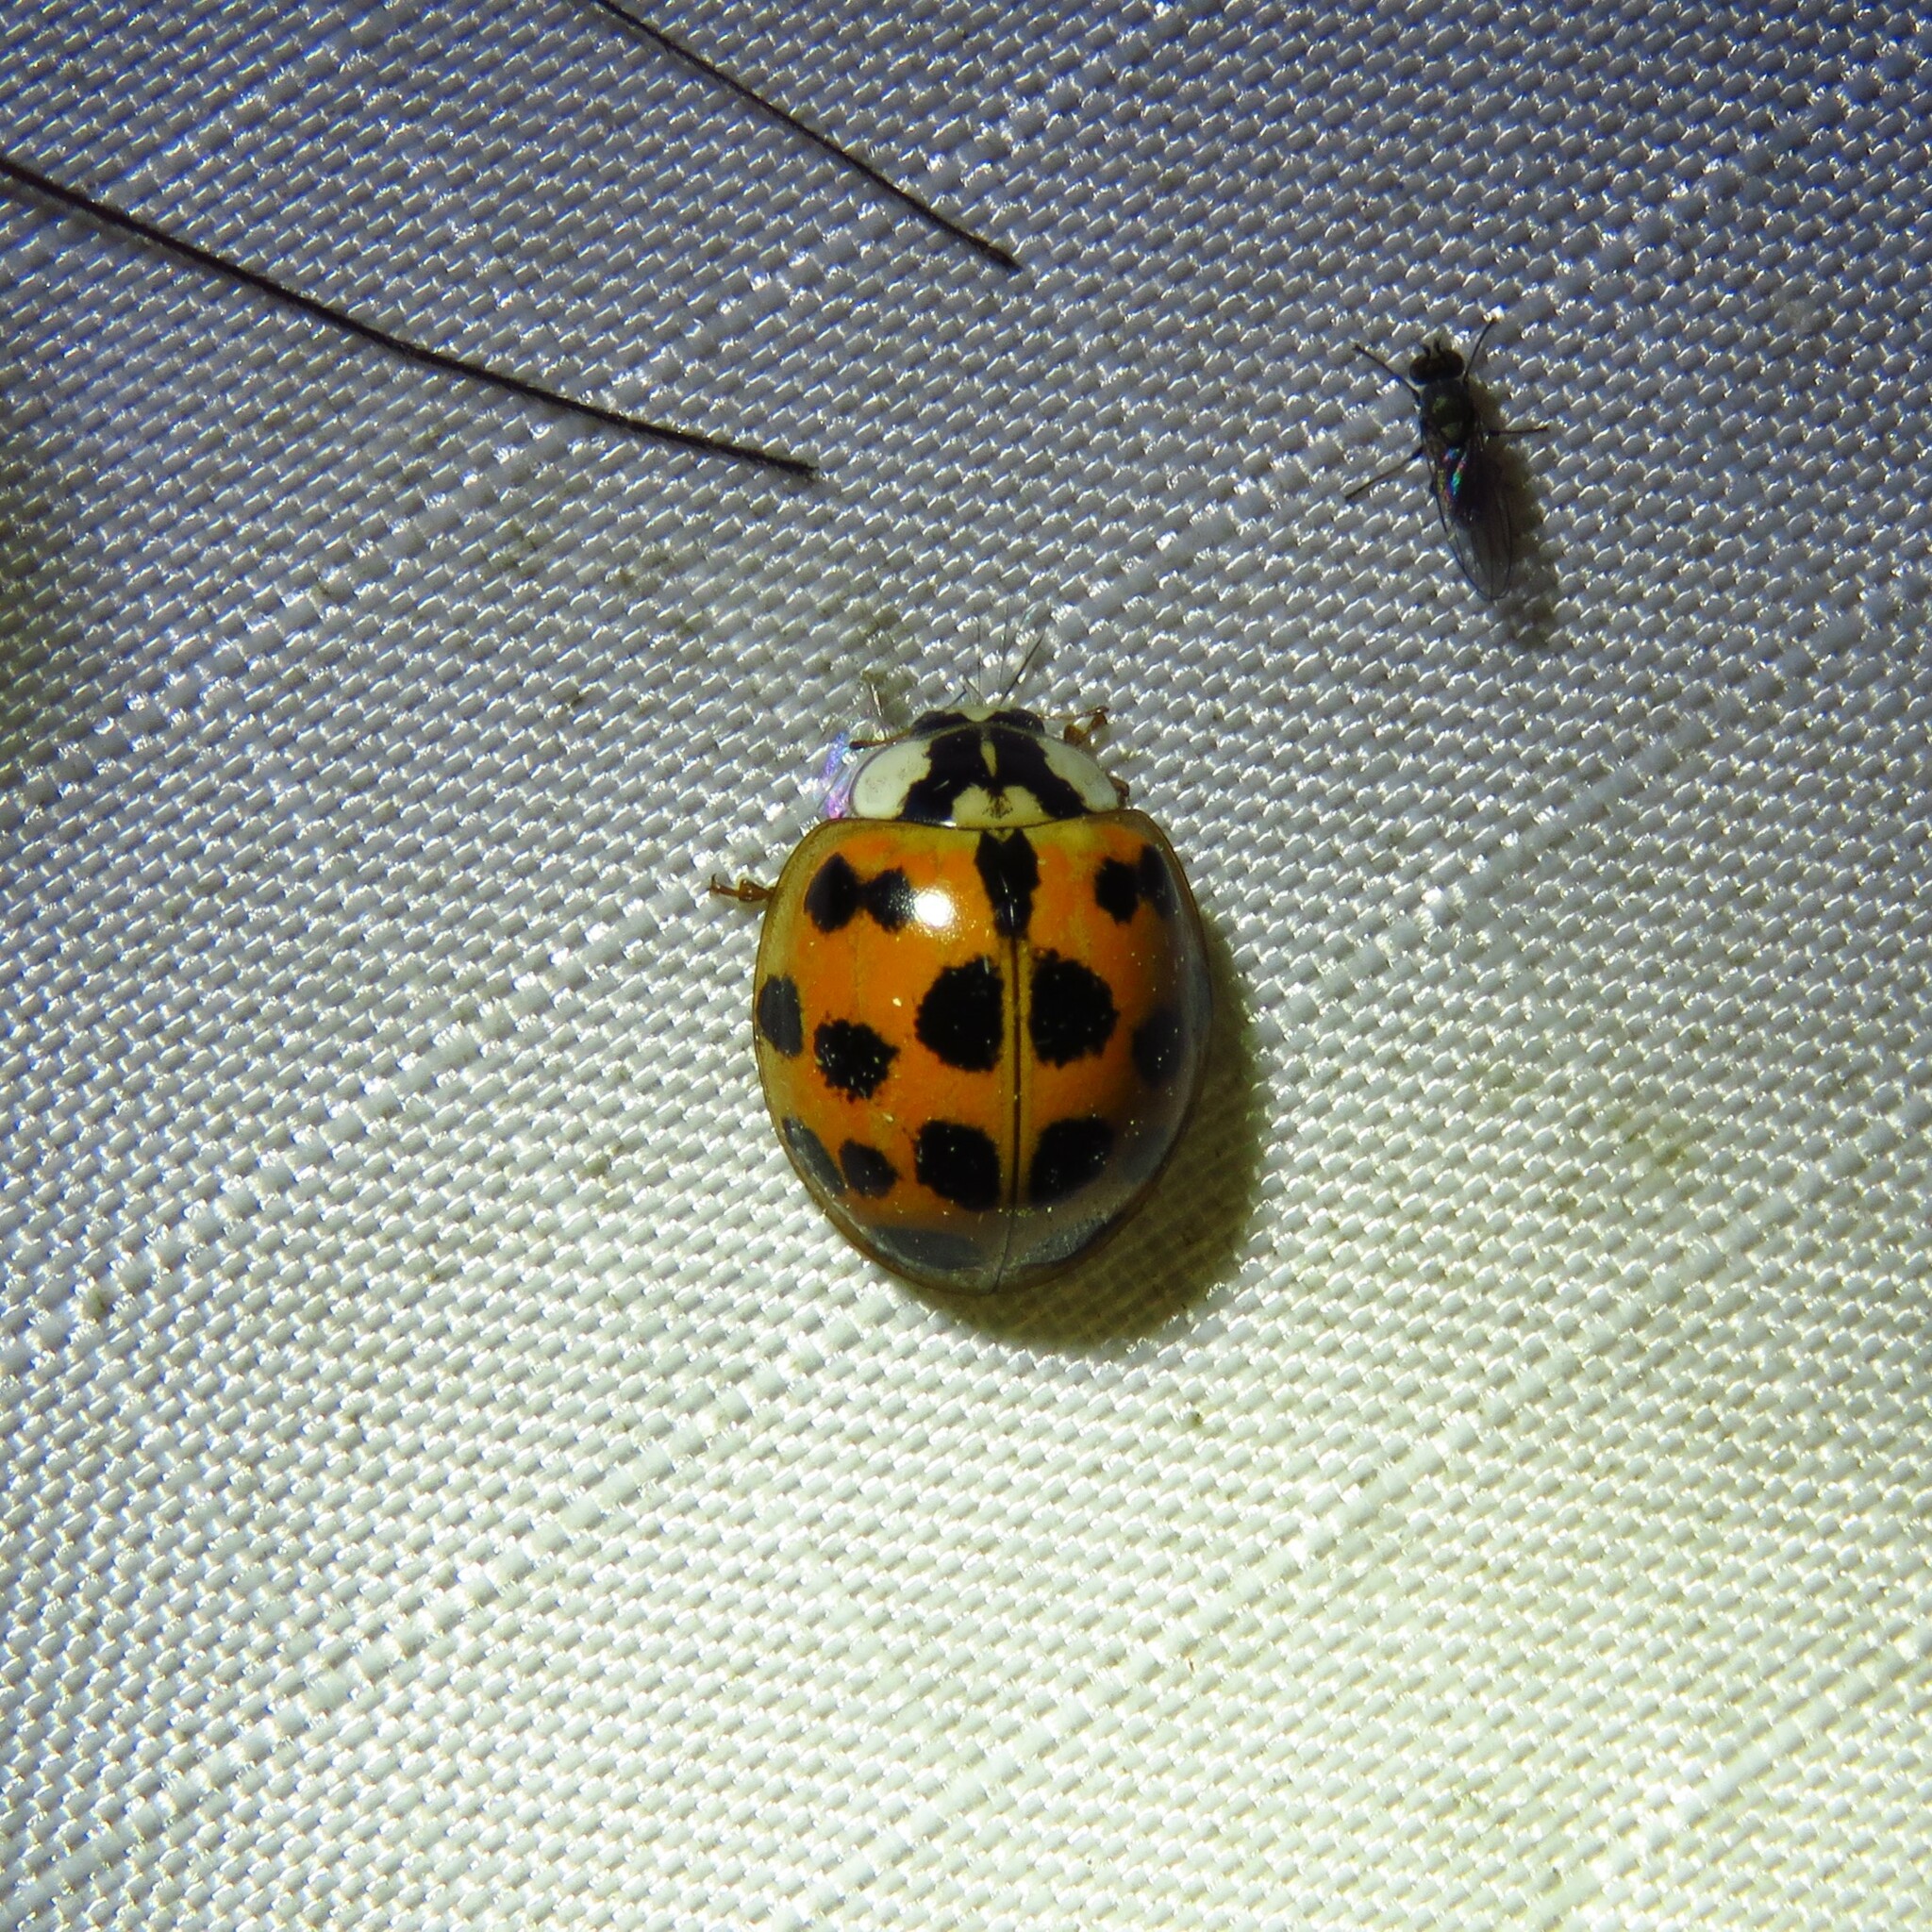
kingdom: Animalia
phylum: Arthropoda
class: Insecta
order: Coleoptera
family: Coccinellidae
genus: Harmonia
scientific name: Harmonia axyridis
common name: Harlequin ladybird
